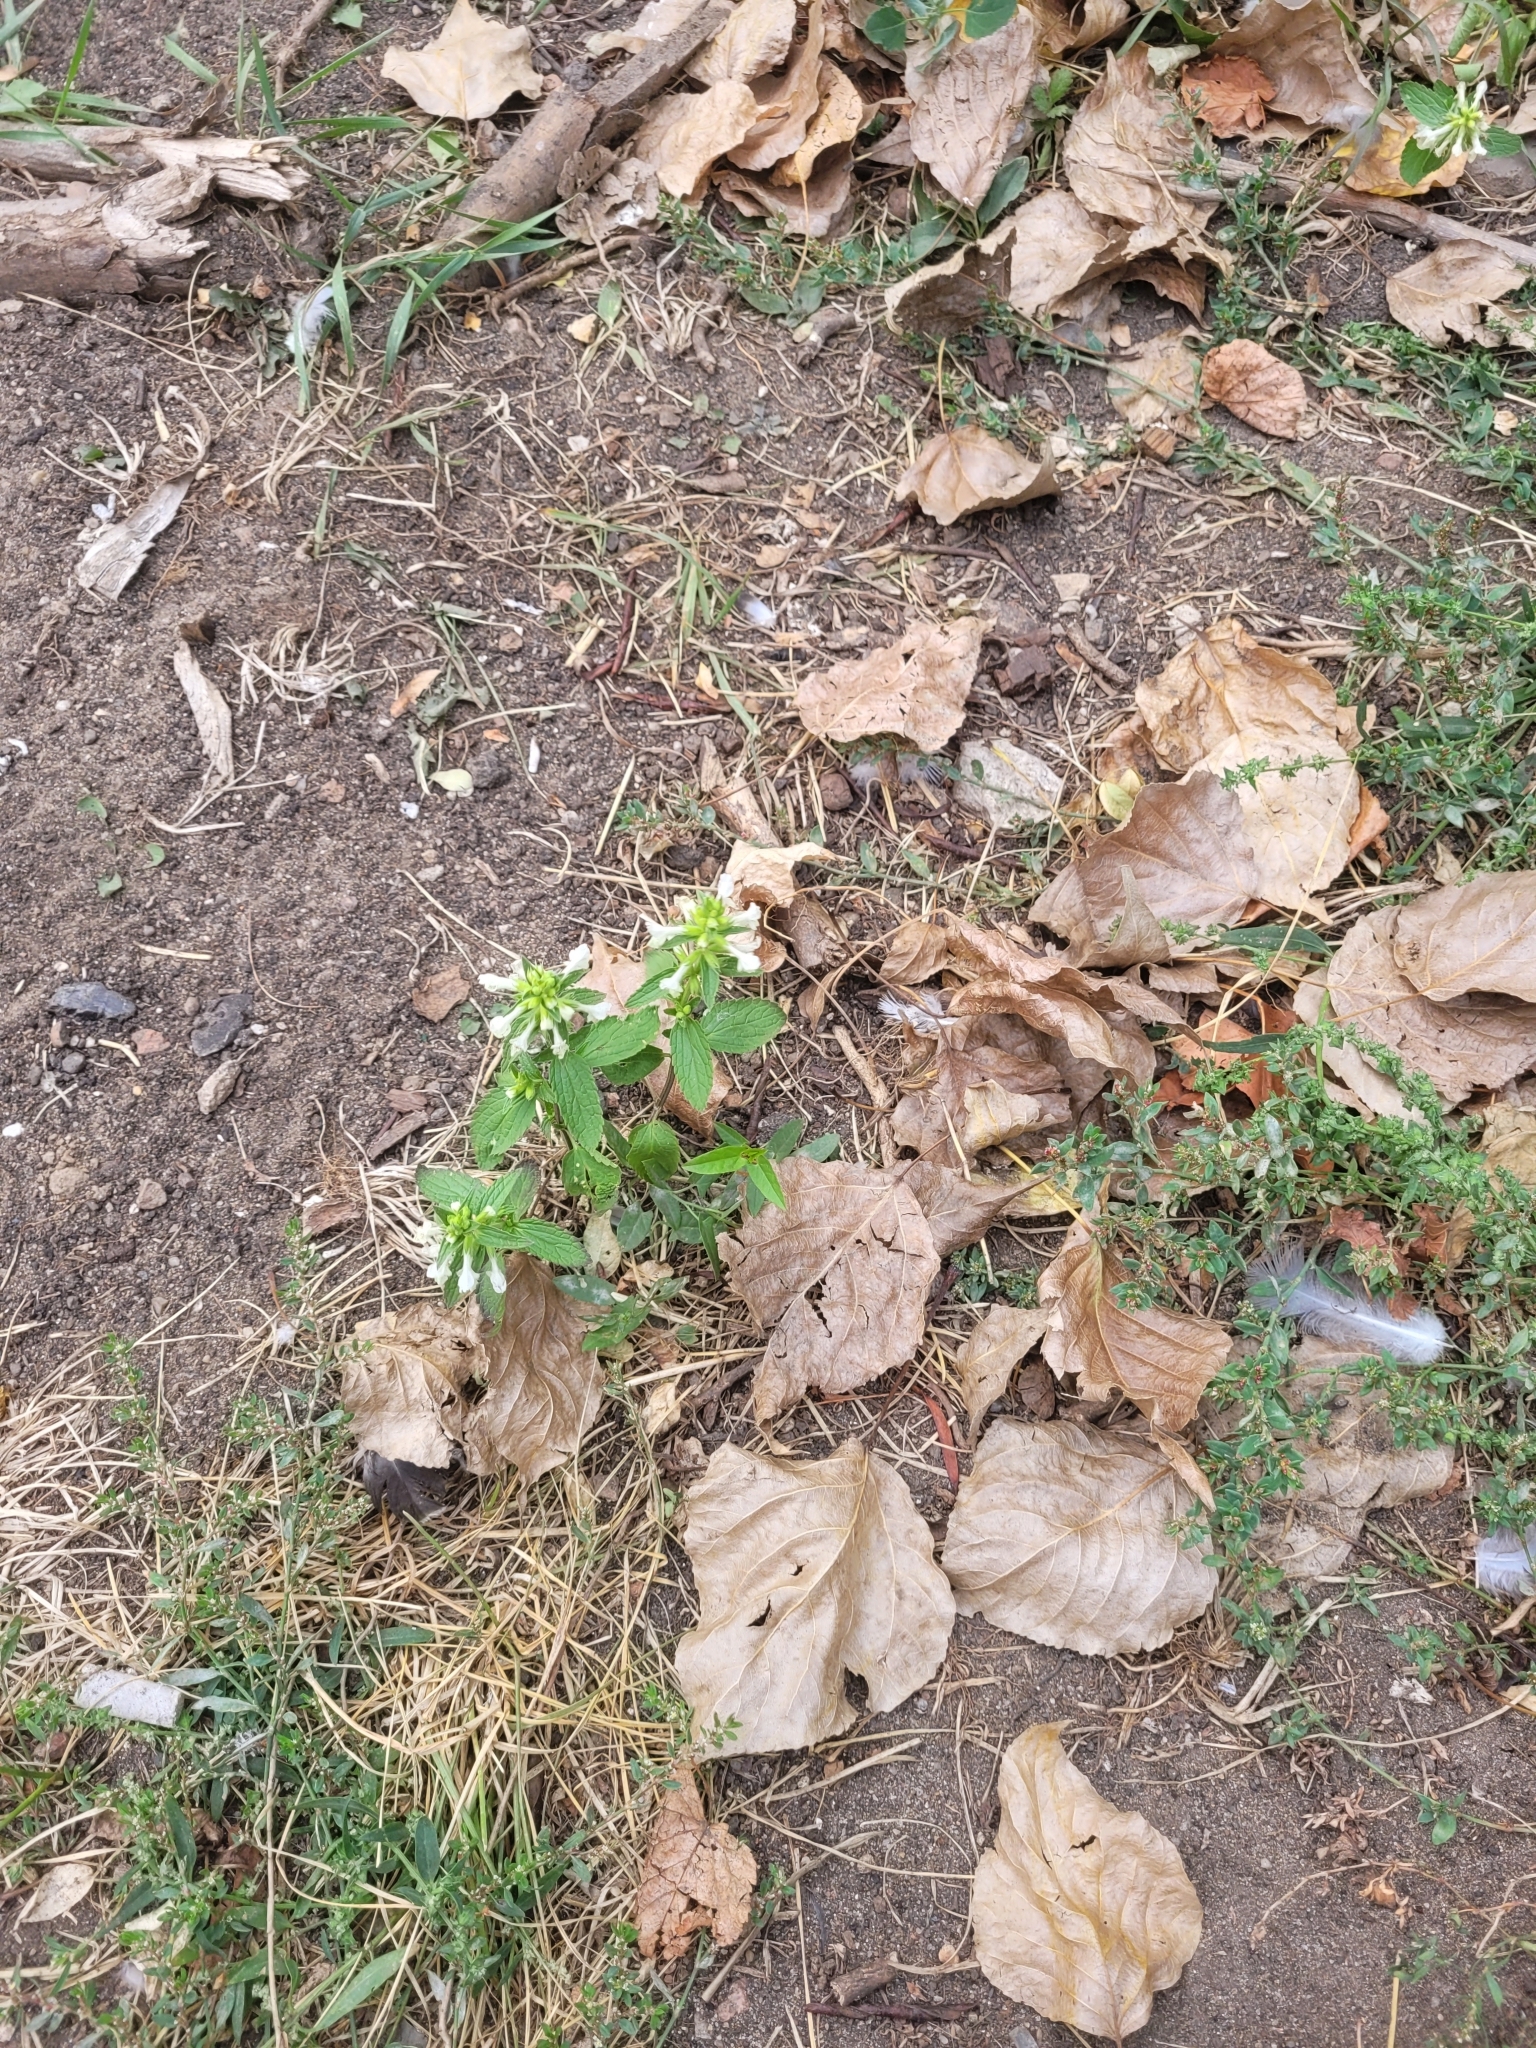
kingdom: Plantae
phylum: Tracheophyta
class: Magnoliopsida
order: Lamiales
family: Lamiaceae
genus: Stachys
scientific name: Stachys annua
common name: Annual yellow-woundwort
